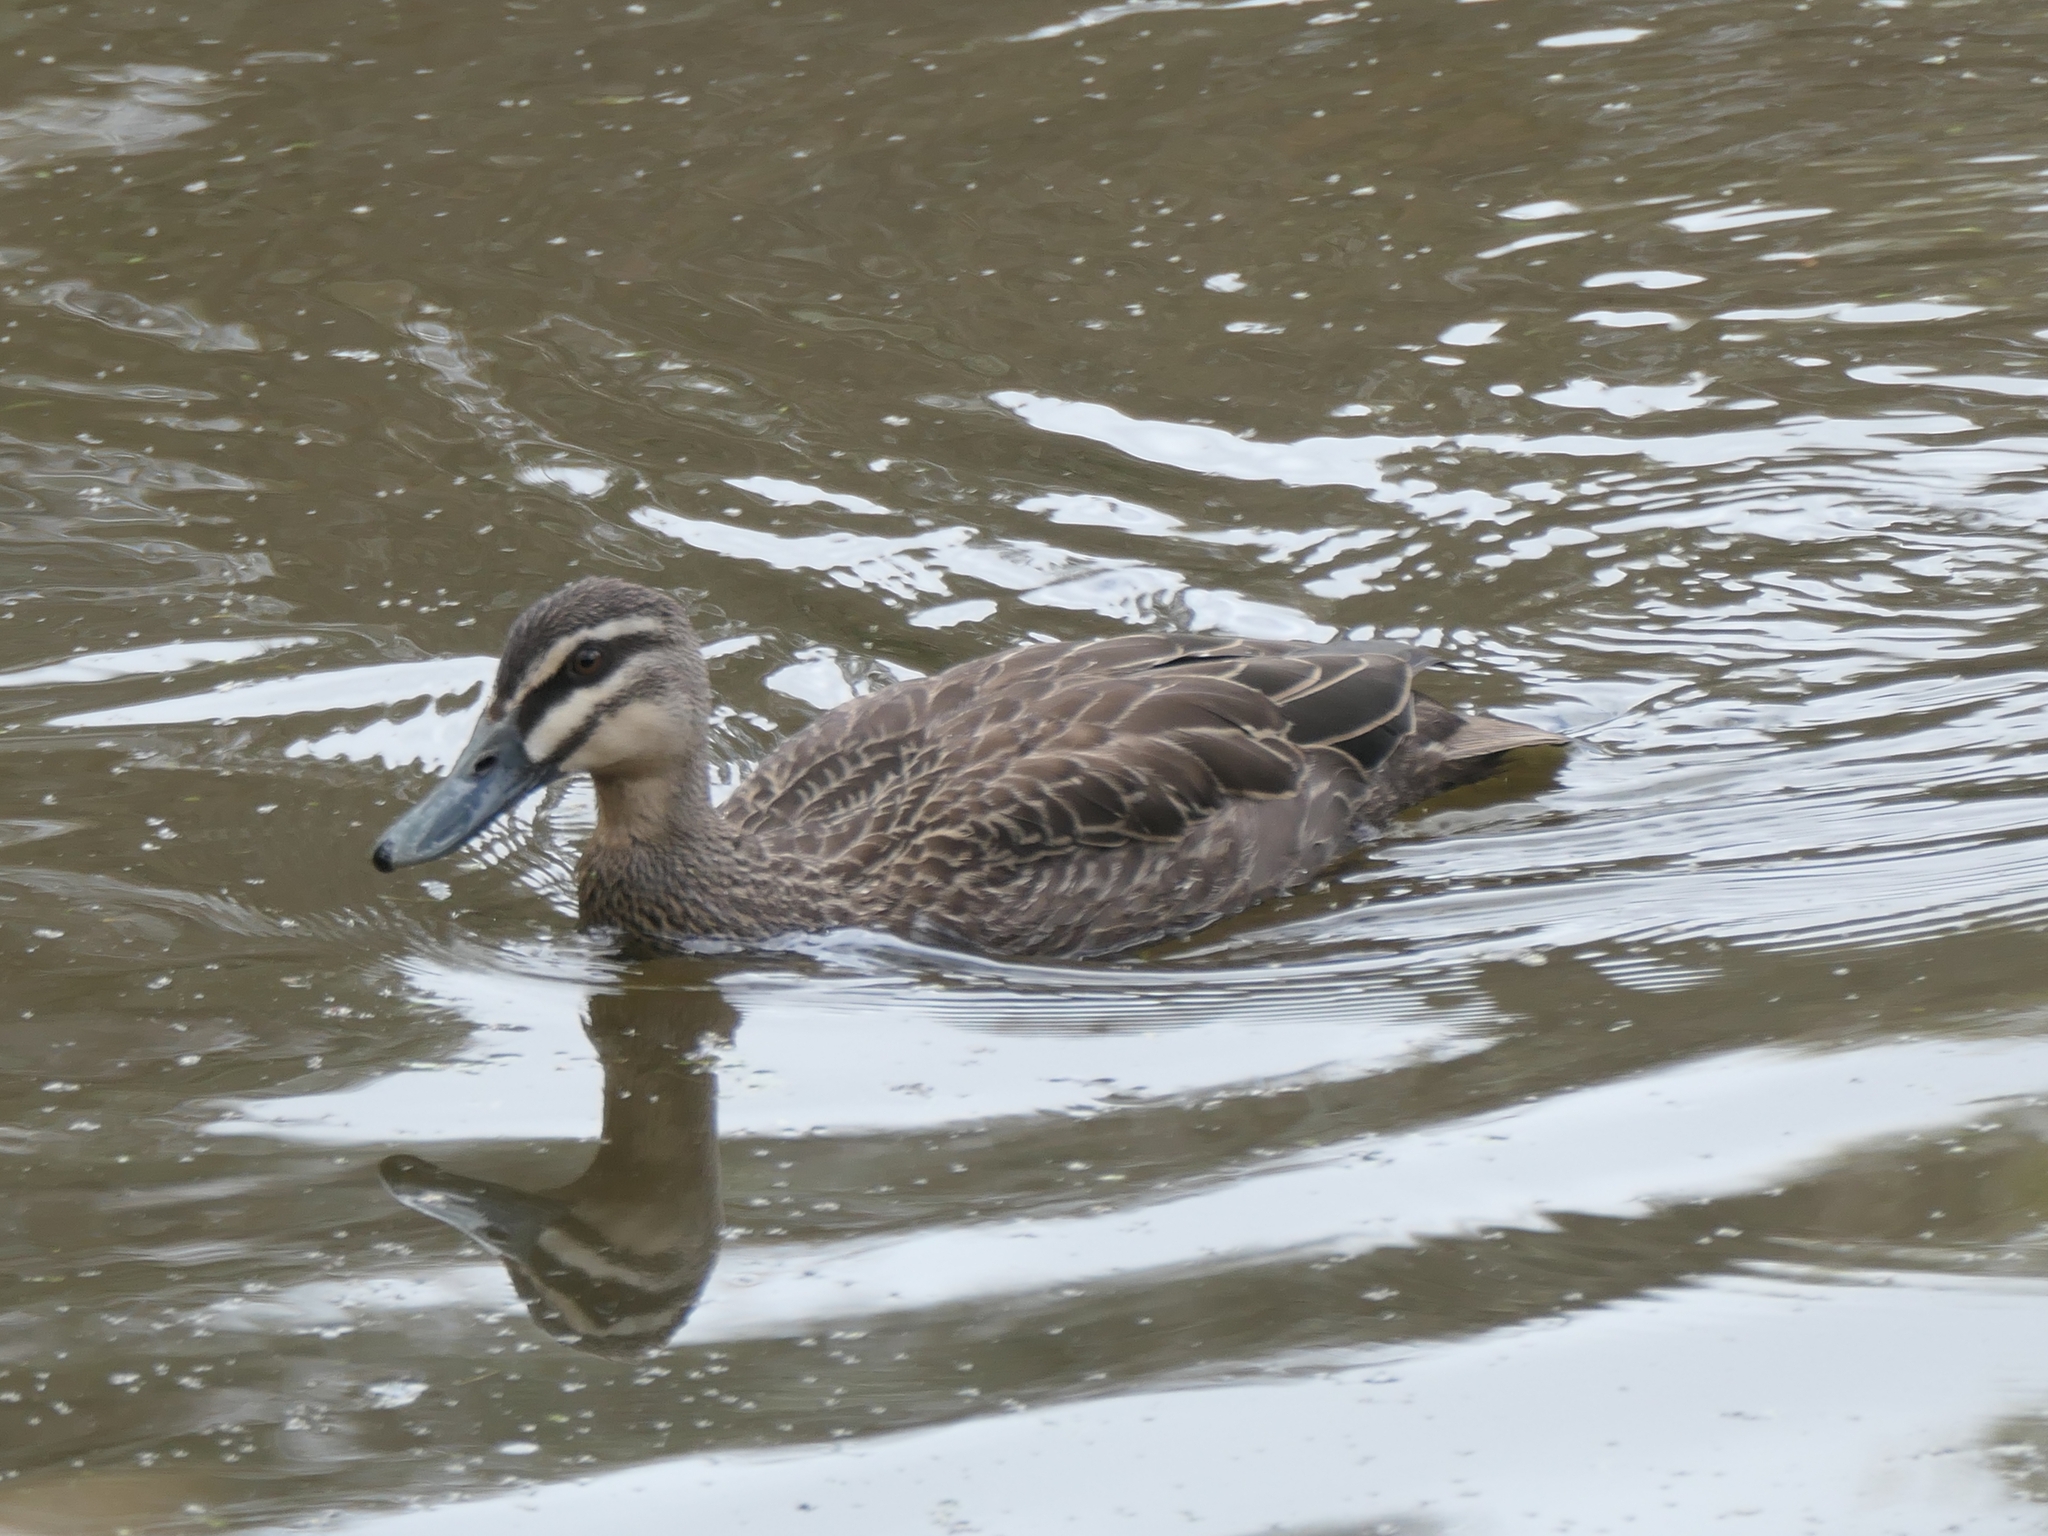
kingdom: Animalia
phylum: Chordata
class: Aves
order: Anseriformes
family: Anatidae
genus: Anas
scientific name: Anas superciliosa
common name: Pacific black duck
